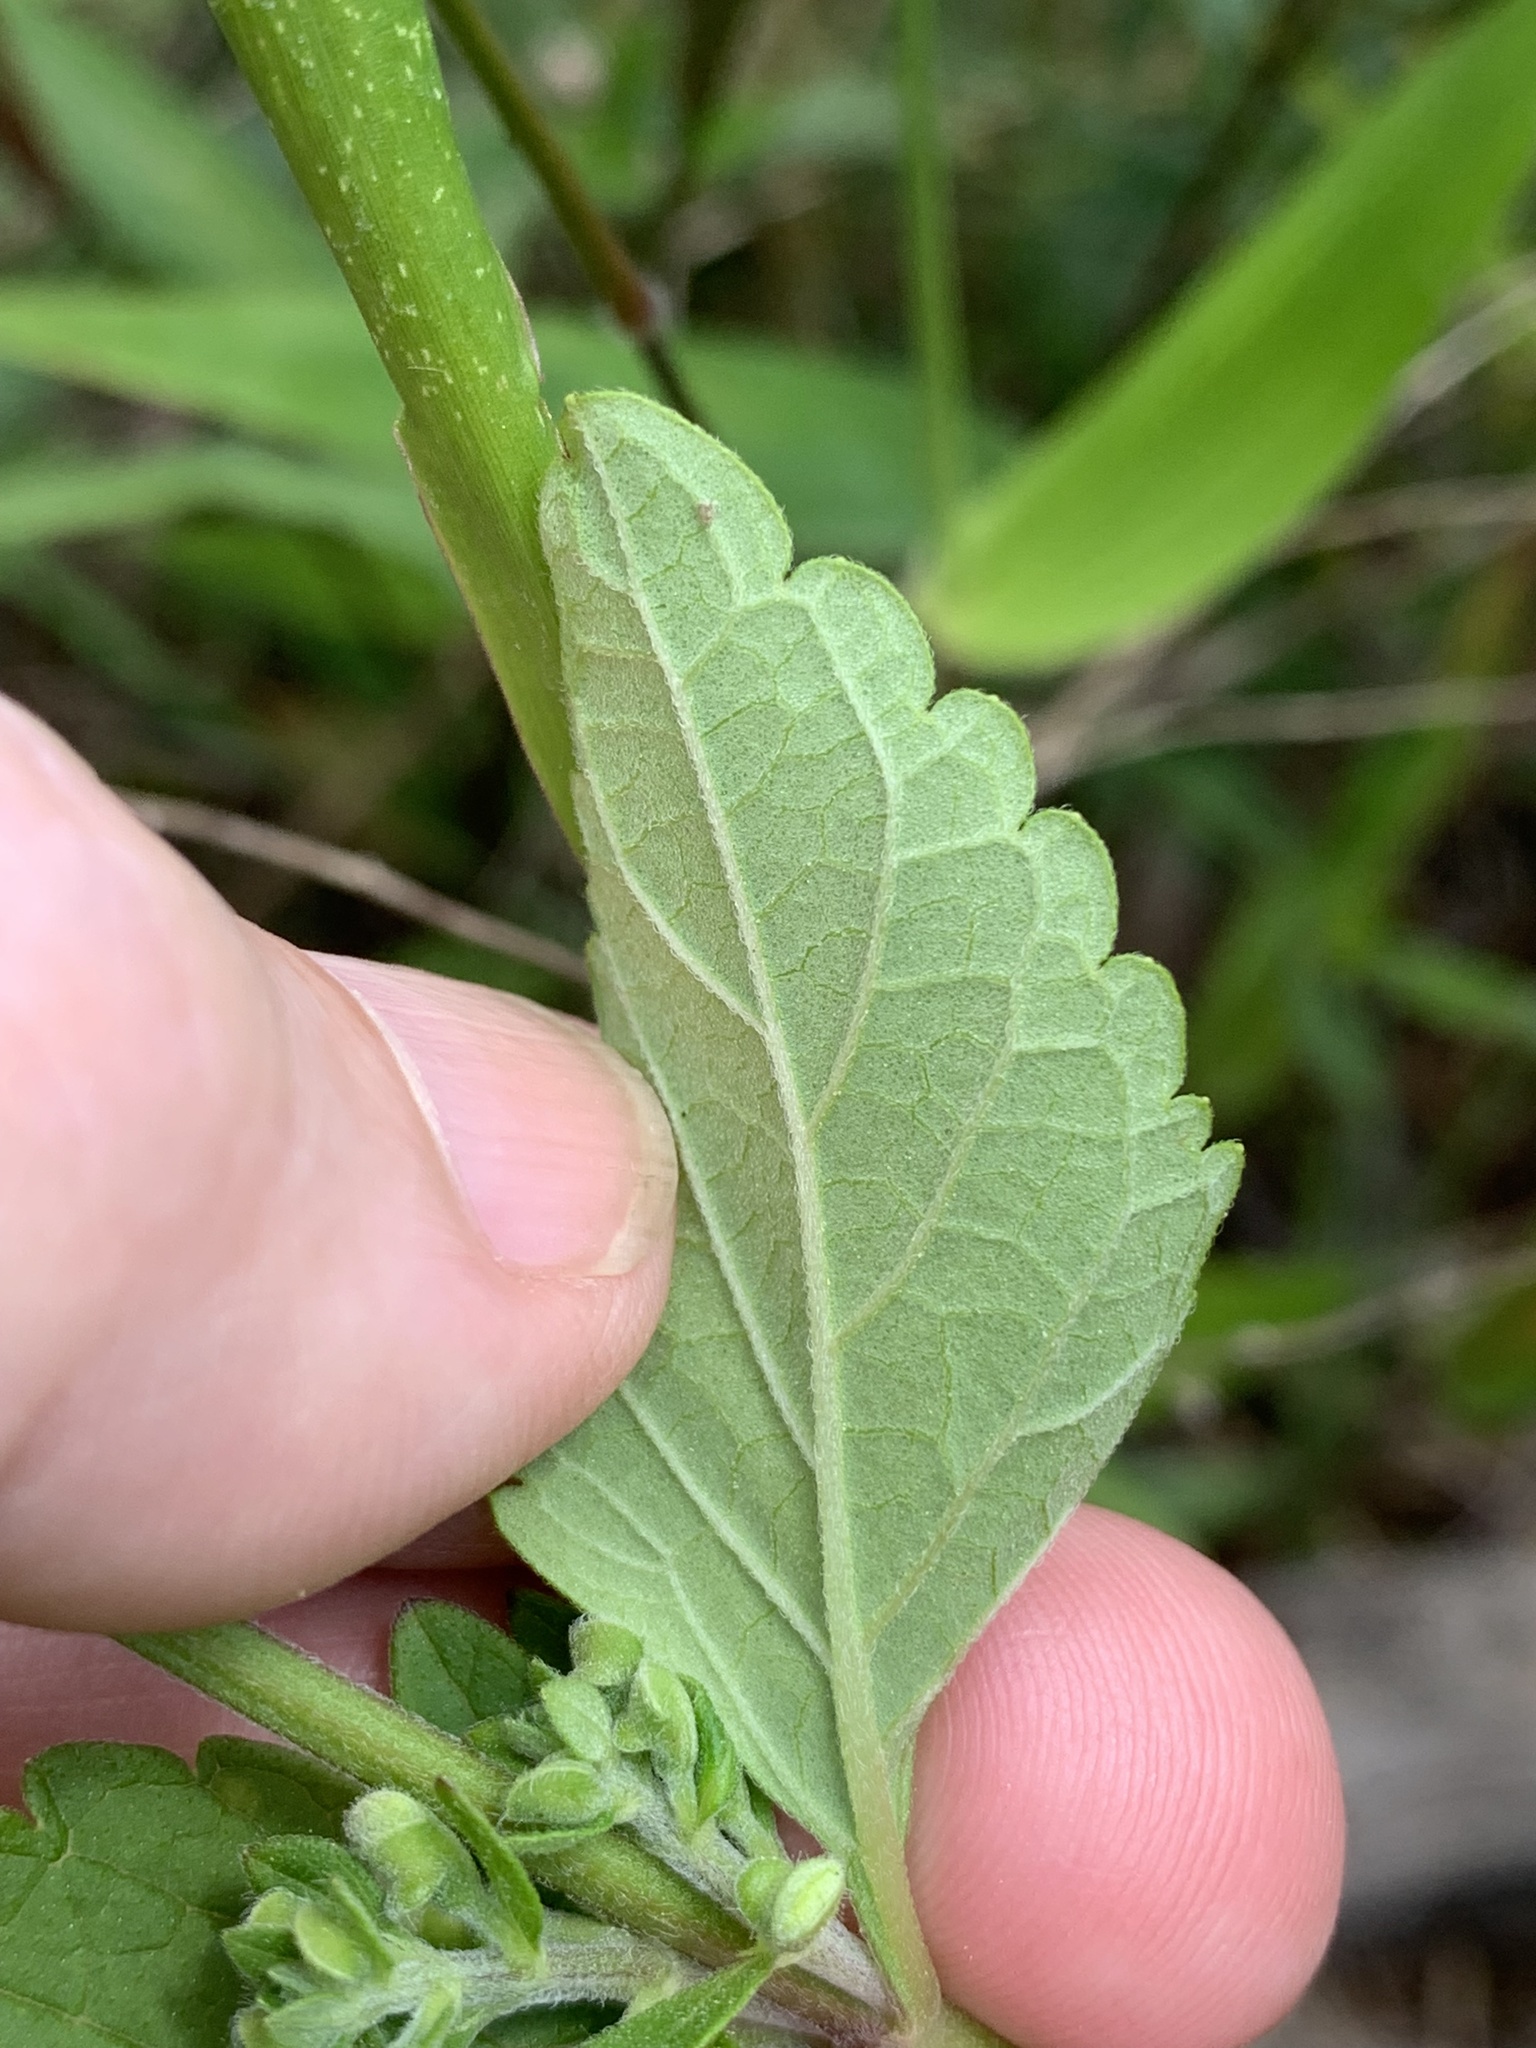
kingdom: Plantae
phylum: Tracheophyta
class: Magnoliopsida
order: Lamiales
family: Lamiaceae
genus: Scutellaria
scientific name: Scutellaria elliptica
